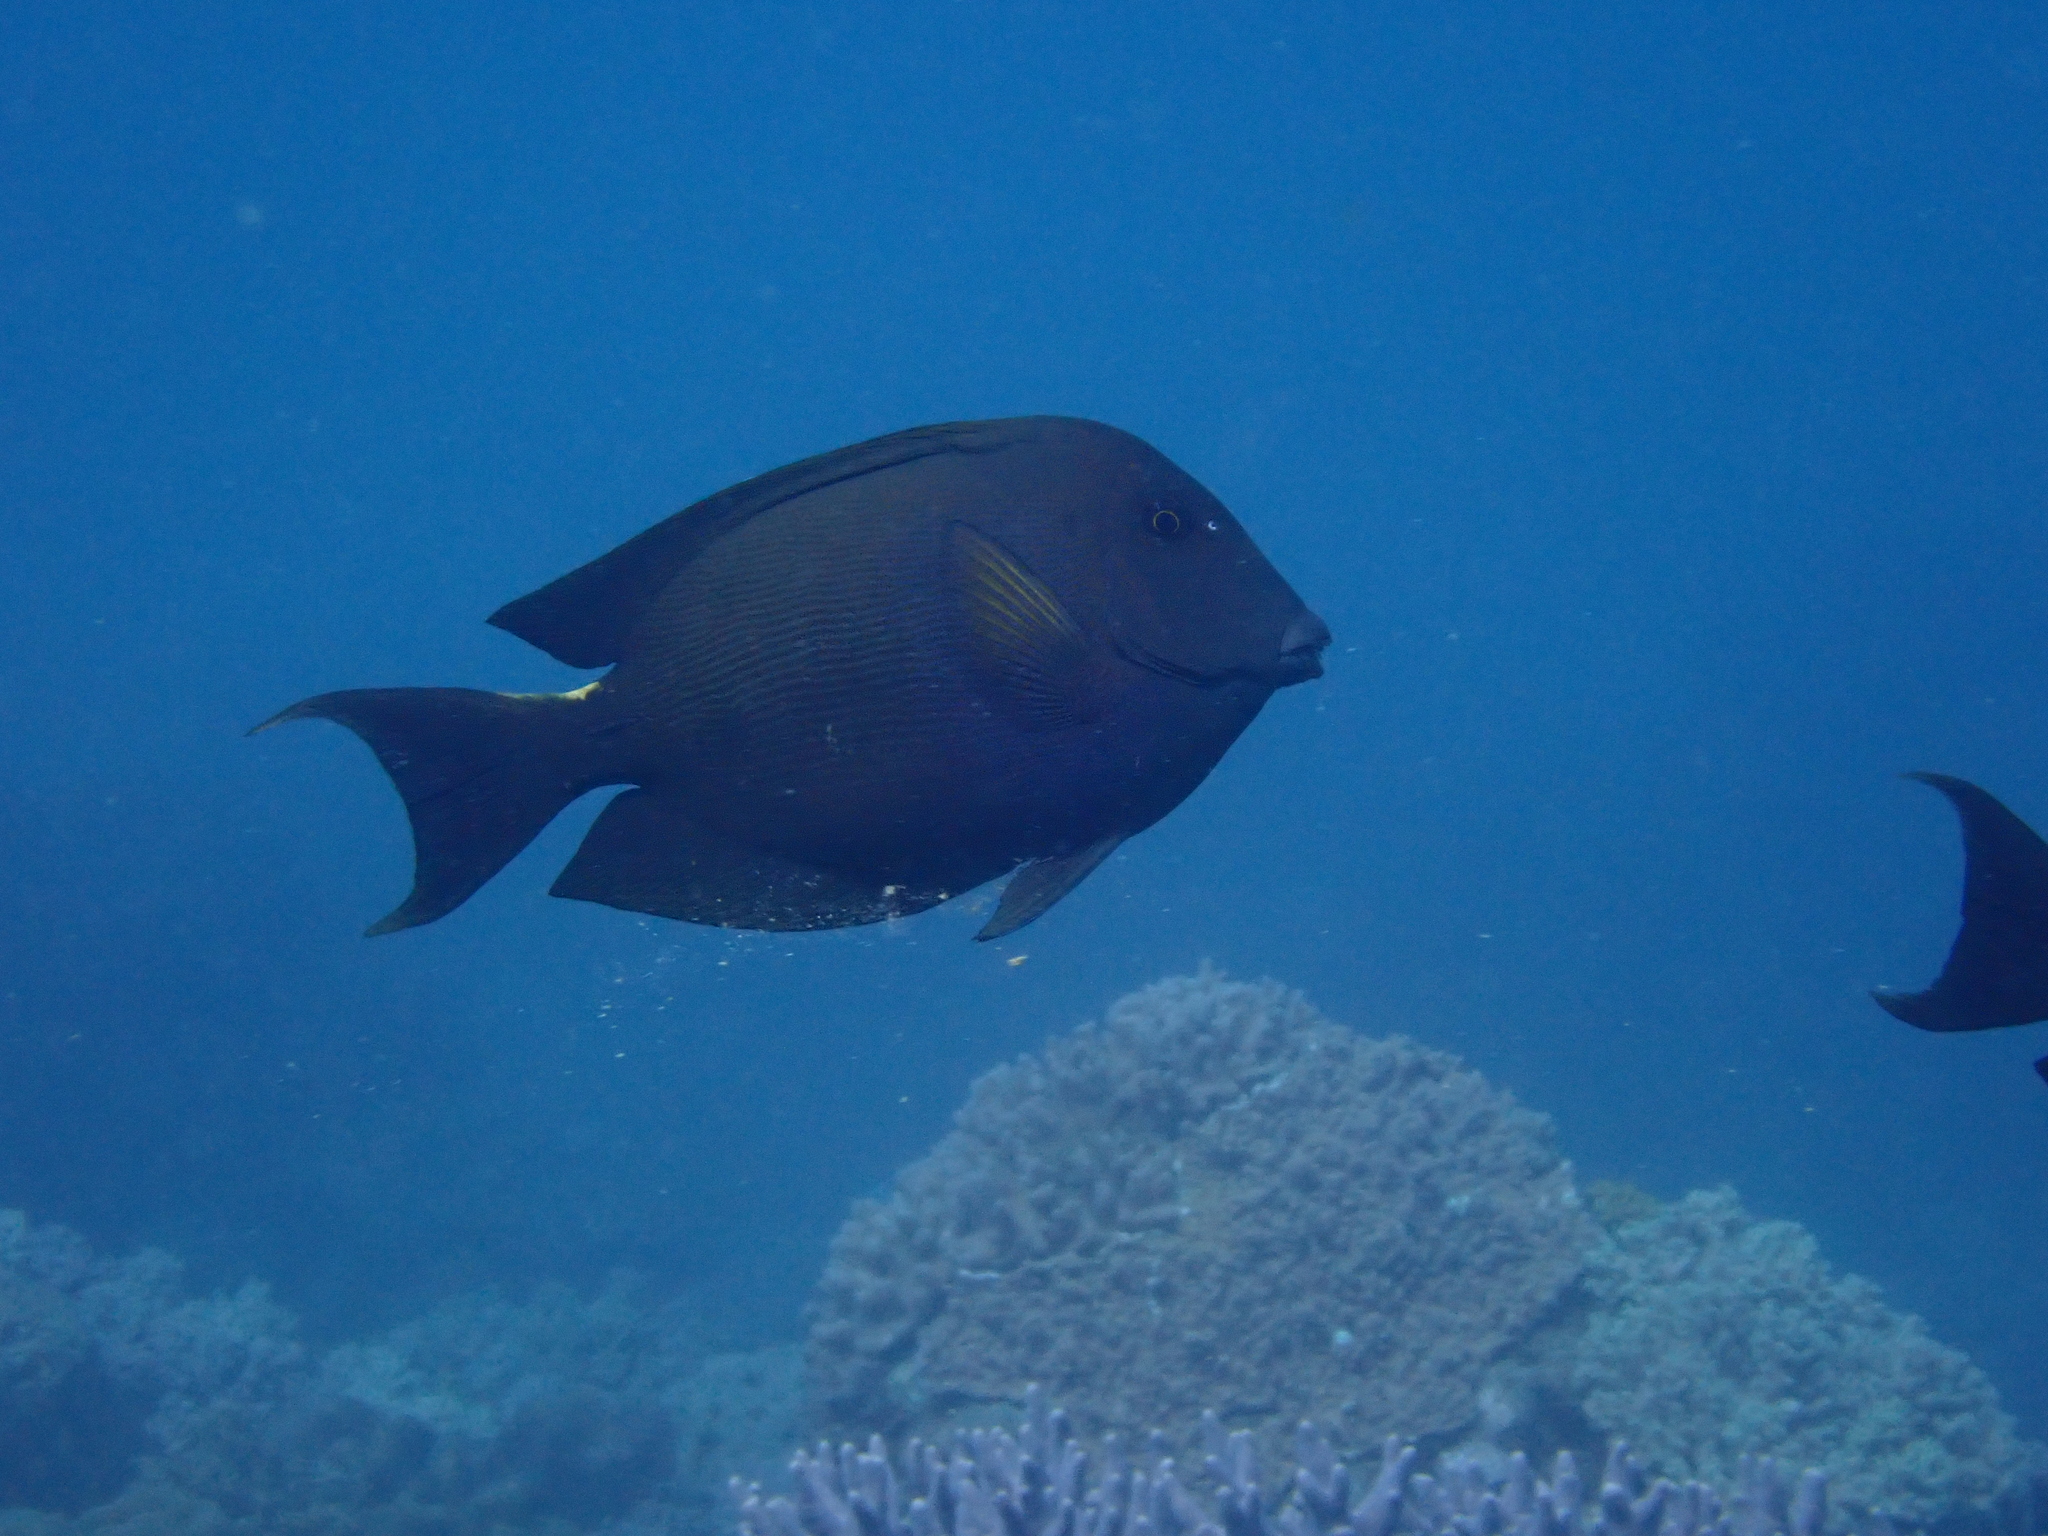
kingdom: Animalia
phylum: Chordata
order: Perciformes
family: Acanthuridae
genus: Ctenochaetus
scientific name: Ctenochaetus striatus
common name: Bristle-toothed surgeonfish
